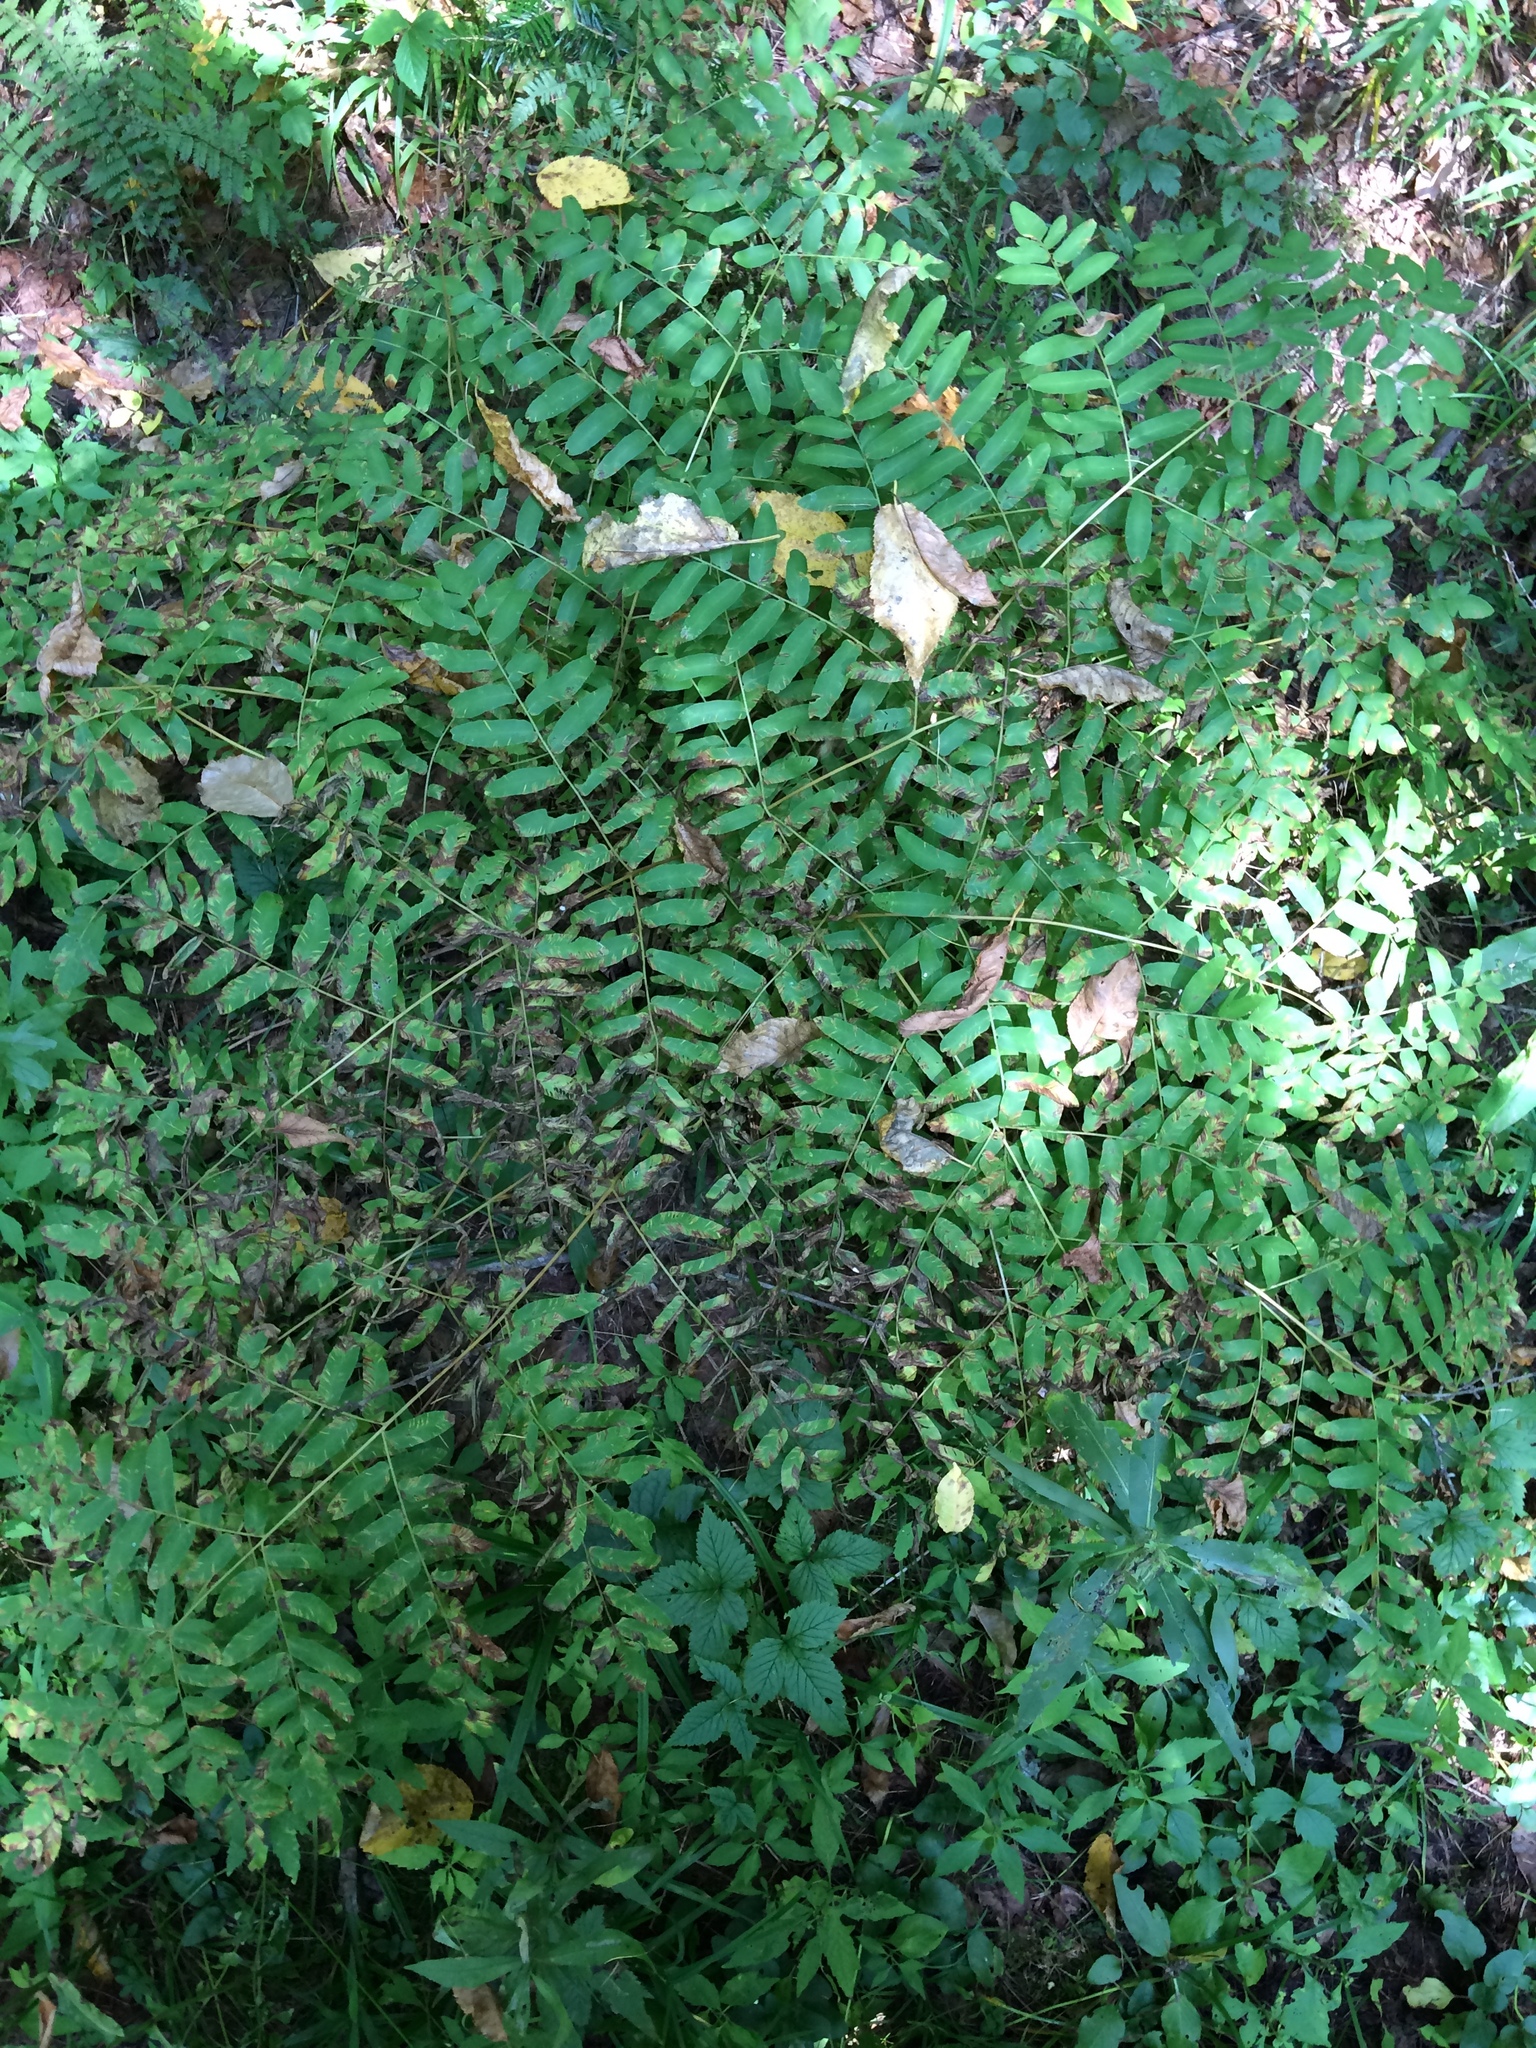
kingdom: Plantae
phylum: Tracheophyta
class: Polypodiopsida
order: Osmundales
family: Osmundaceae
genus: Osmunda
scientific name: Osmunda spectabilis
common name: American royal fern
